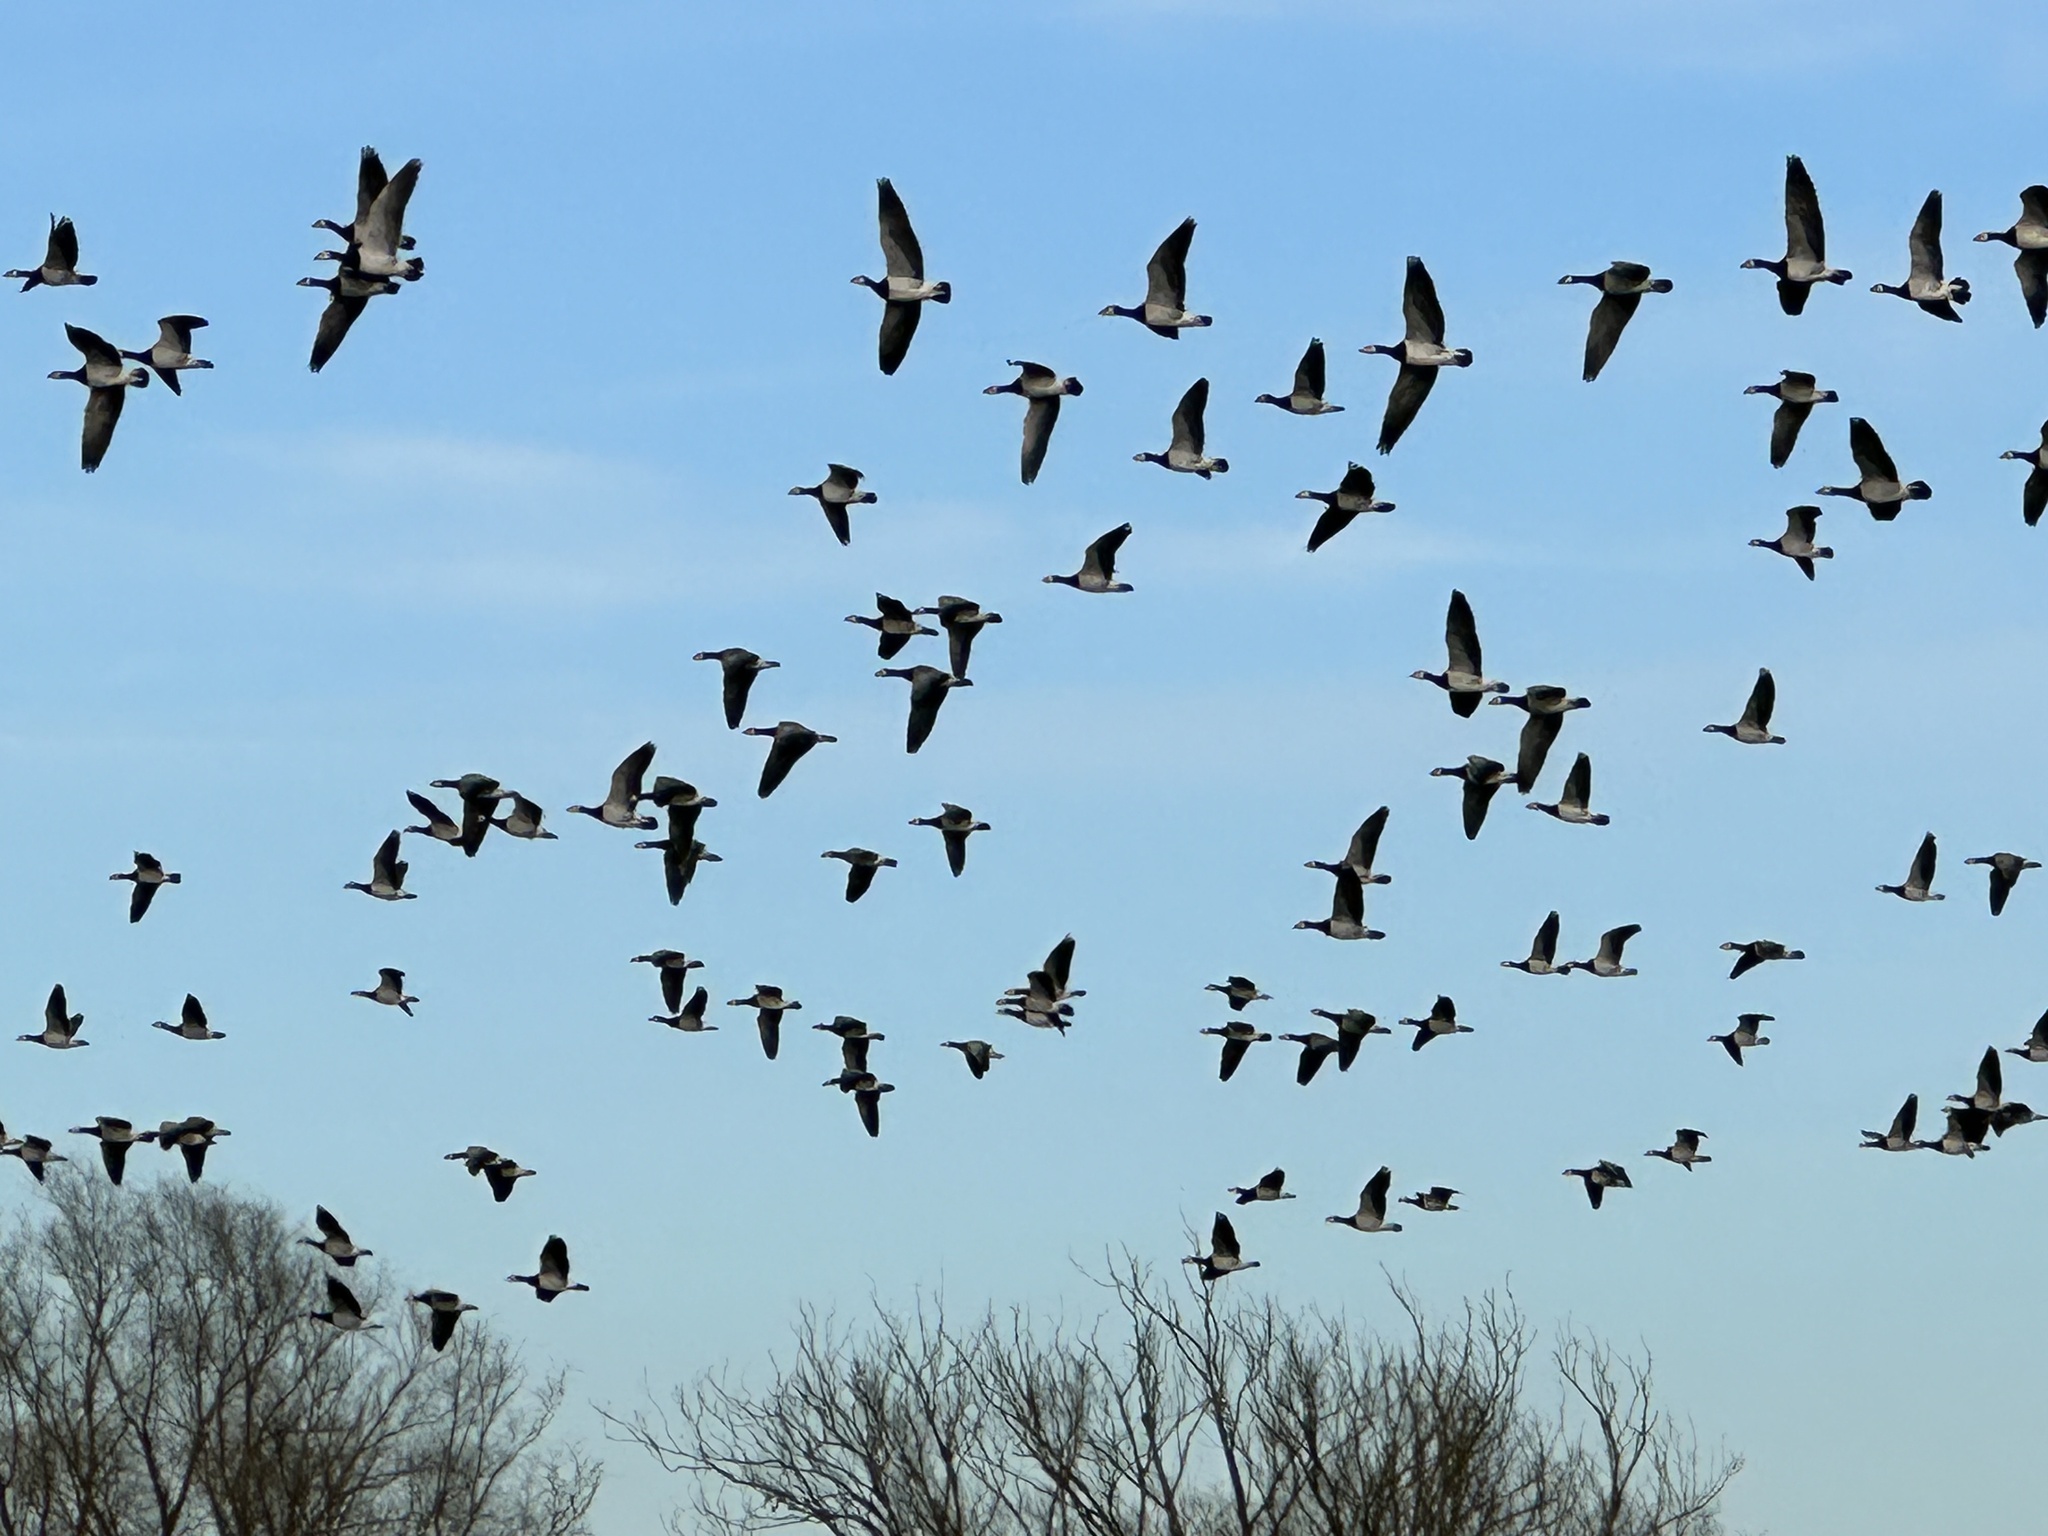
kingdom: Animalia
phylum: Chordata
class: Aves
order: Anseriformes
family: Anatidae
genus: Branta
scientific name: Branta leucopsis
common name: Barnacle goose
